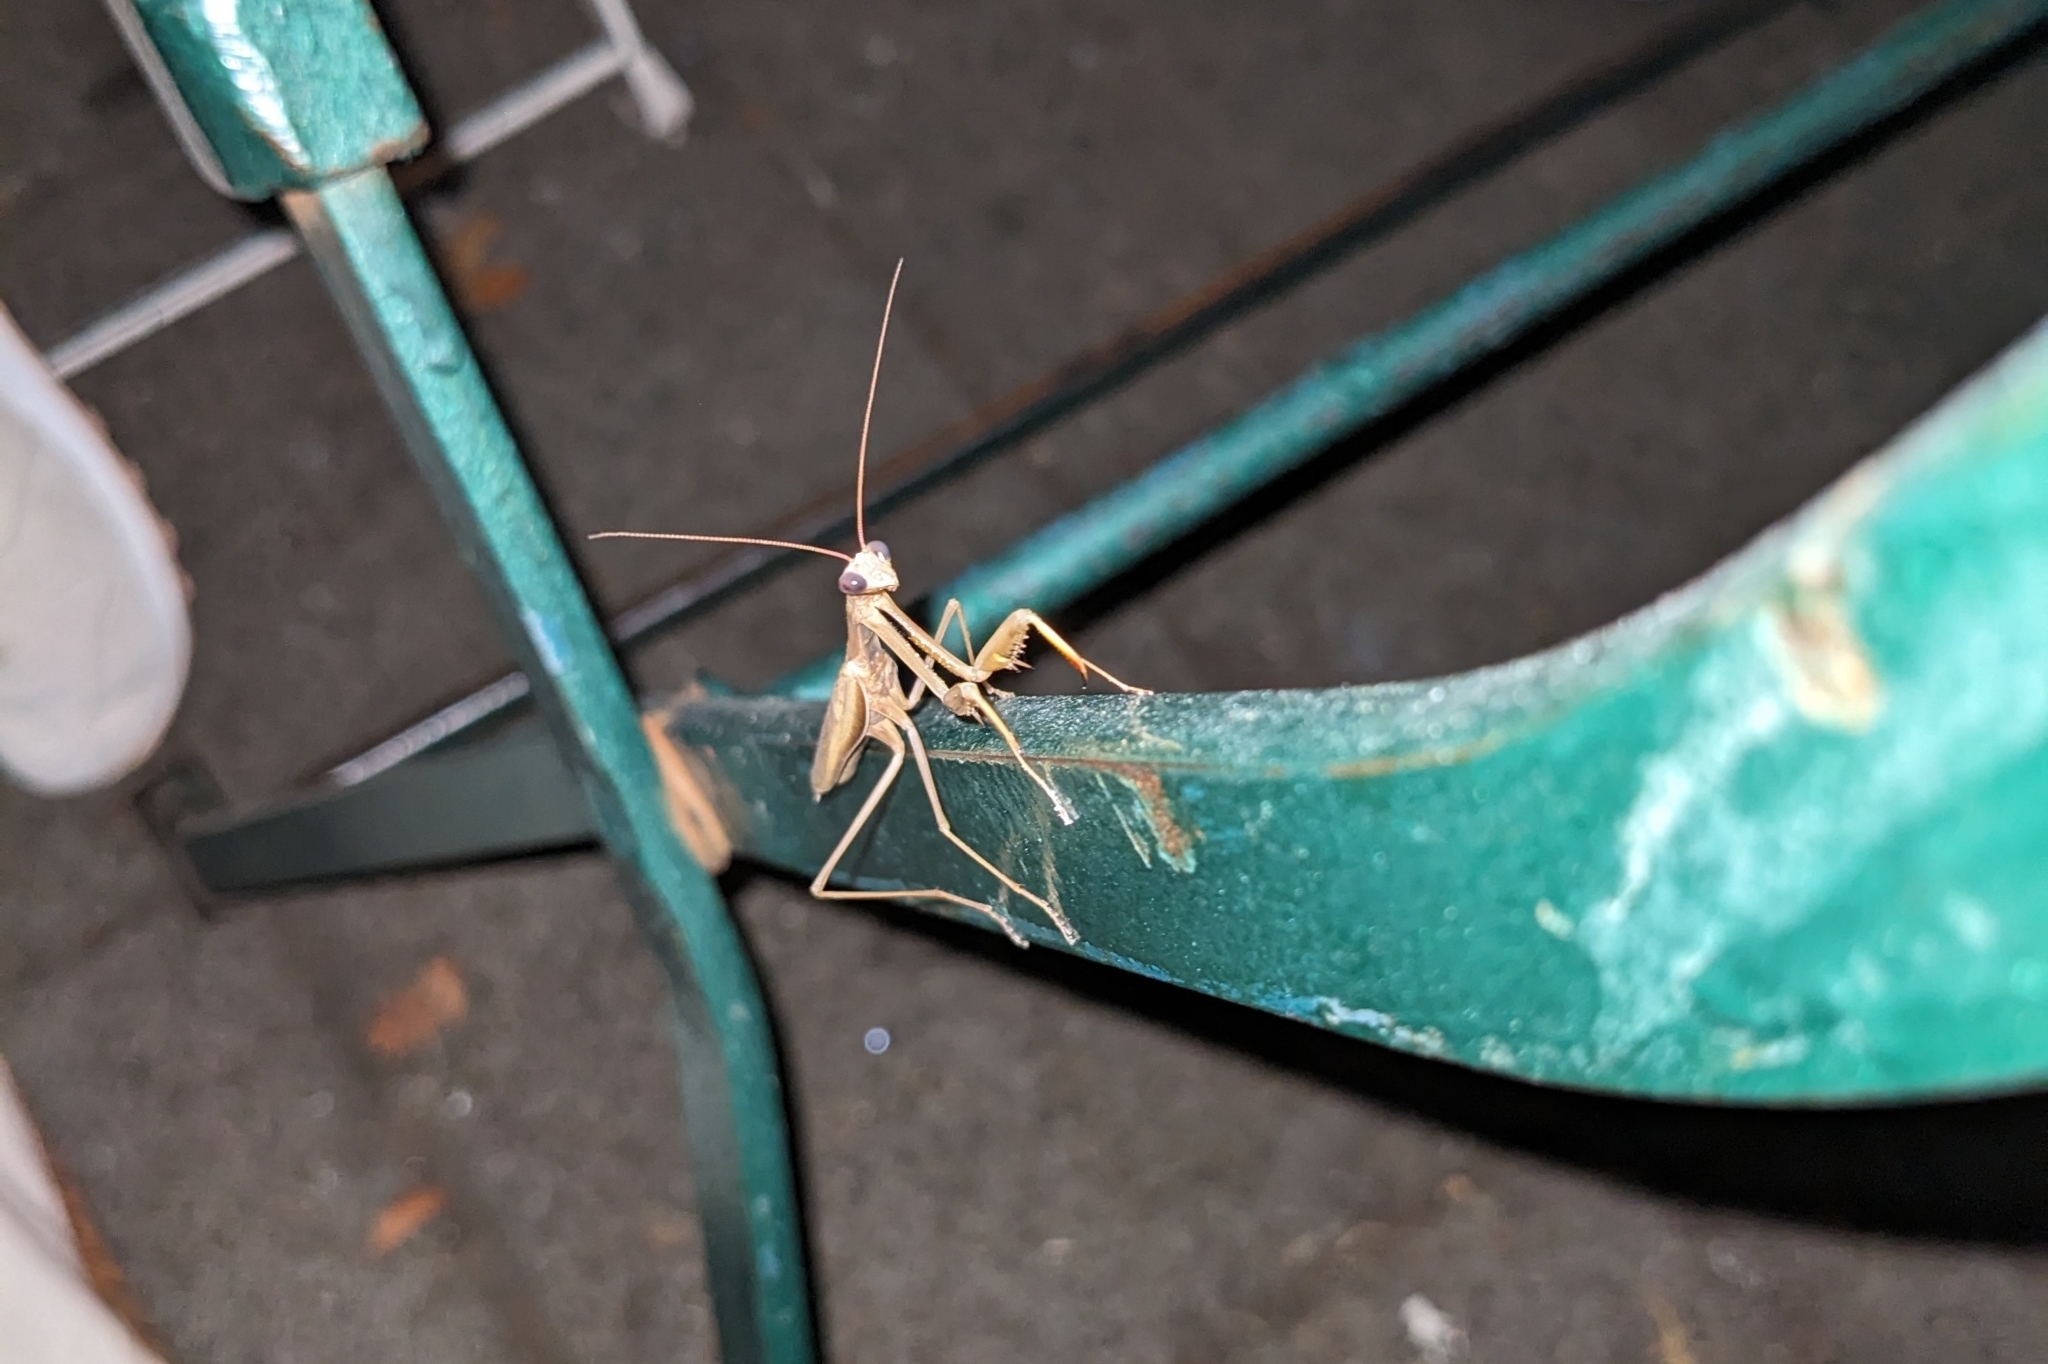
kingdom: Animalia
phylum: Arthropoda
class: Insecta
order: Mantodea
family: Mantidae
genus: Mantis
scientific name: Mantis religiosa
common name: Praying mantis
